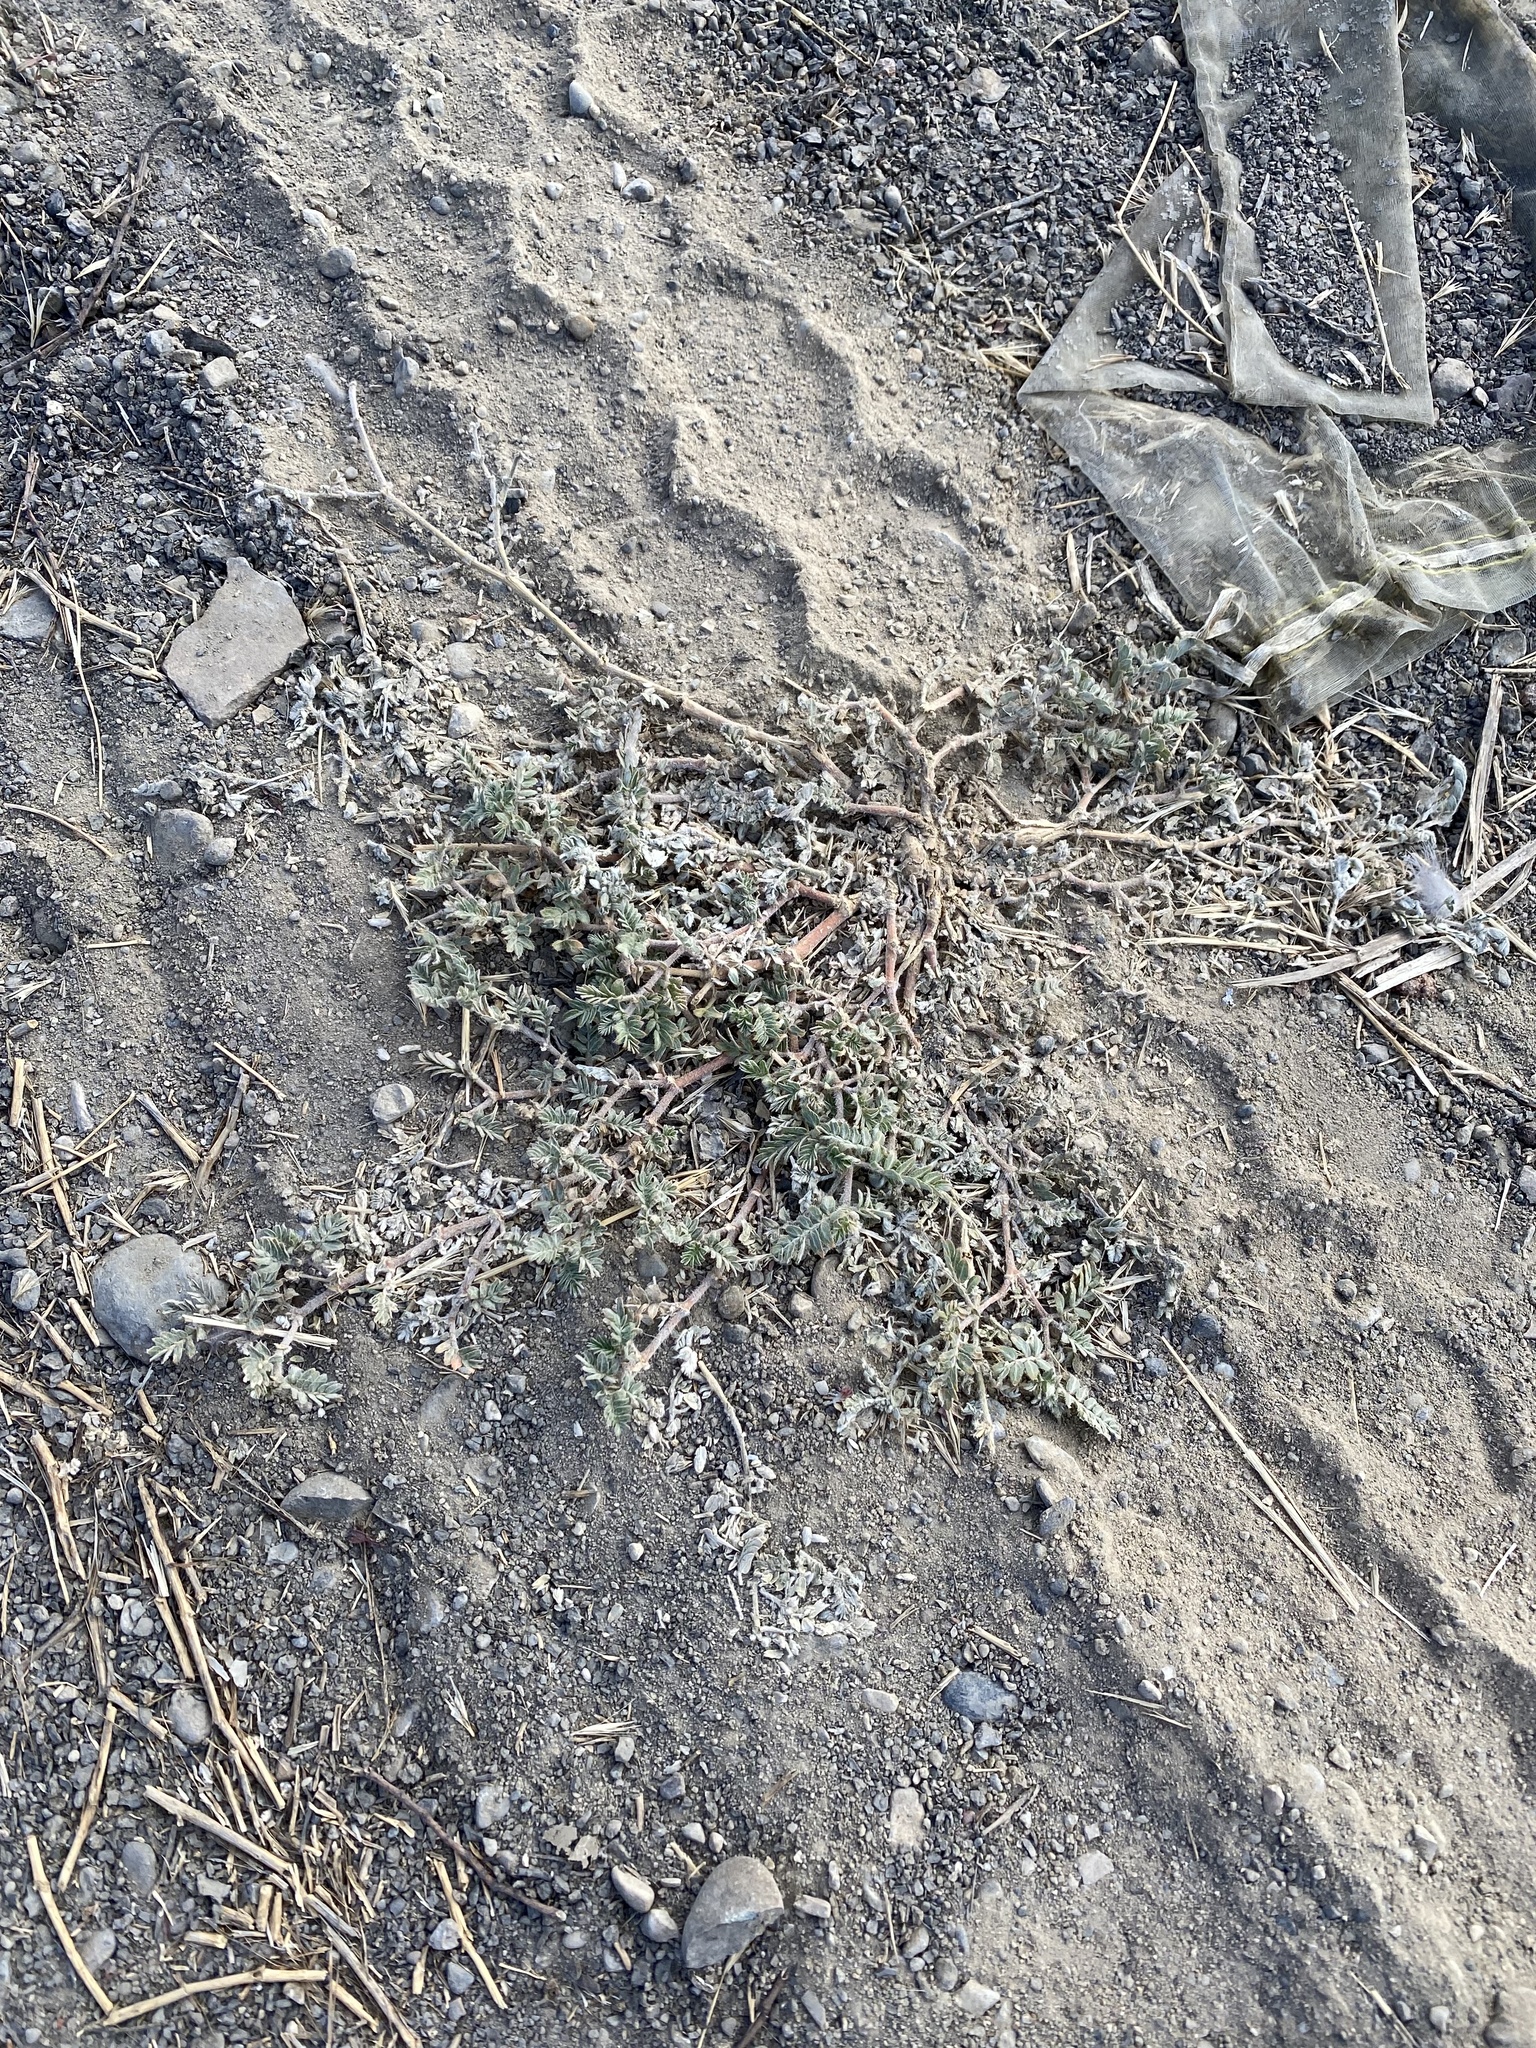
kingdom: Plantae
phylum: Tracheophyta
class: Magnoliopsida
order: Zygophyllales
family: Zygophyllaceae
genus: Tribulus
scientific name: Tribulus terrestris
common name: Puncturevine
